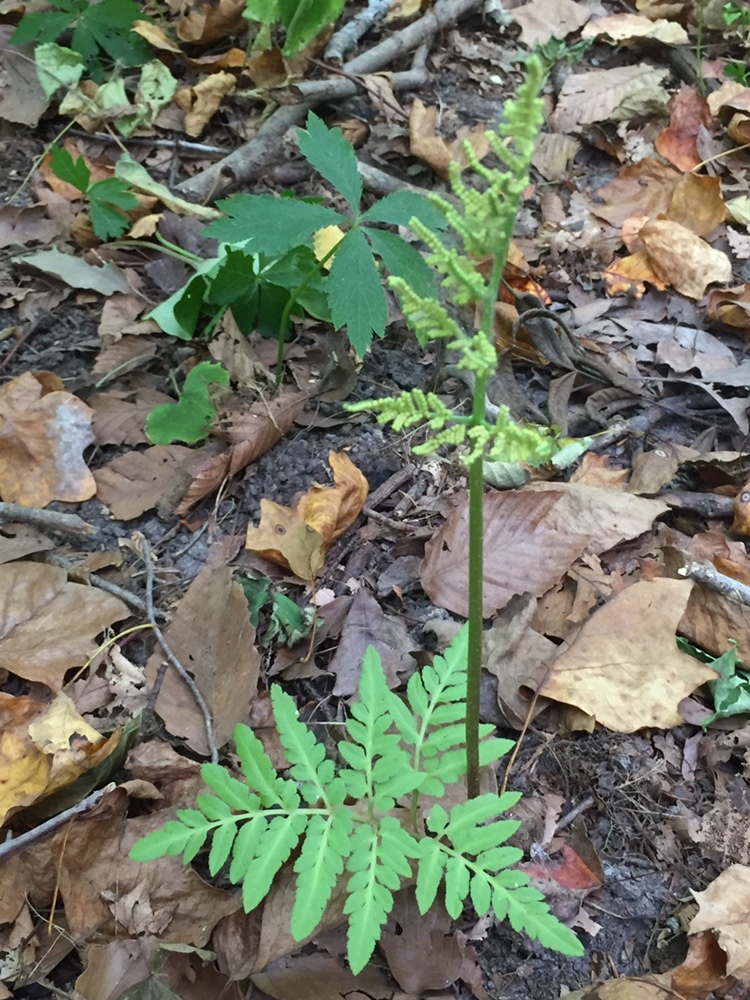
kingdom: Plantae
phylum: Tracheophyta
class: Polypodiopsida
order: Ophioglossales
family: Ophioglossaceae
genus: Sceptridium
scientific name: Sceptridium dissectum
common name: Cut-leaved grapefern
